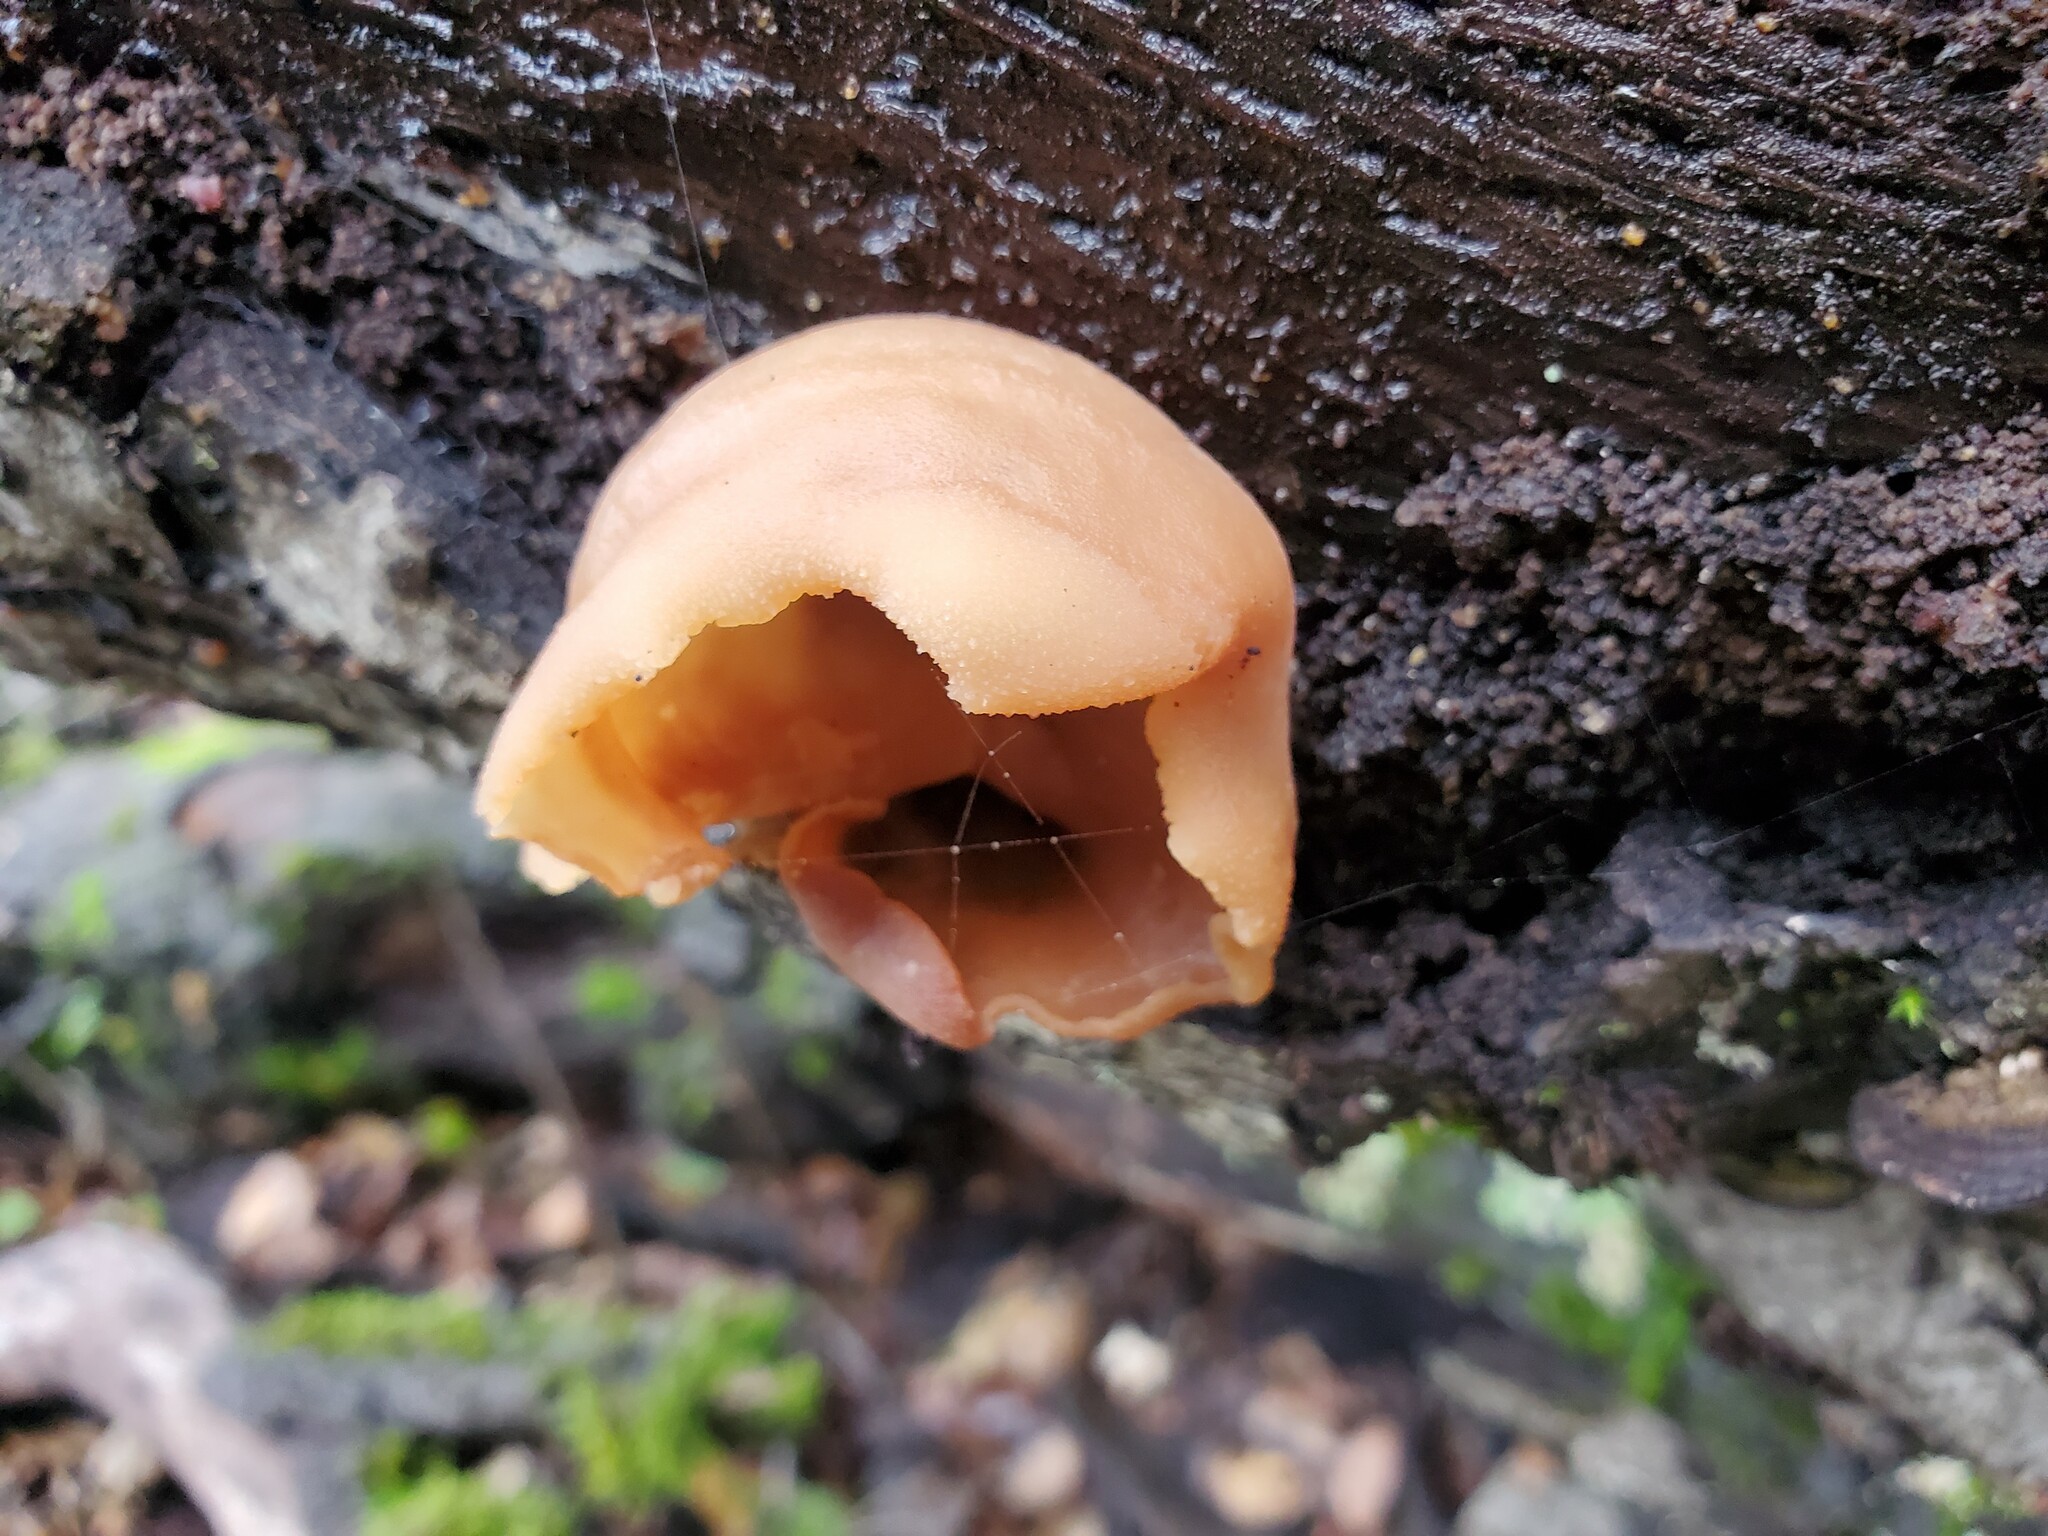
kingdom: Fungi
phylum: Ascomycota
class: Pezizomycetes
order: Pezizales
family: Pezizaceae
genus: Peziza
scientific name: Peziza varia
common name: Layered cup
